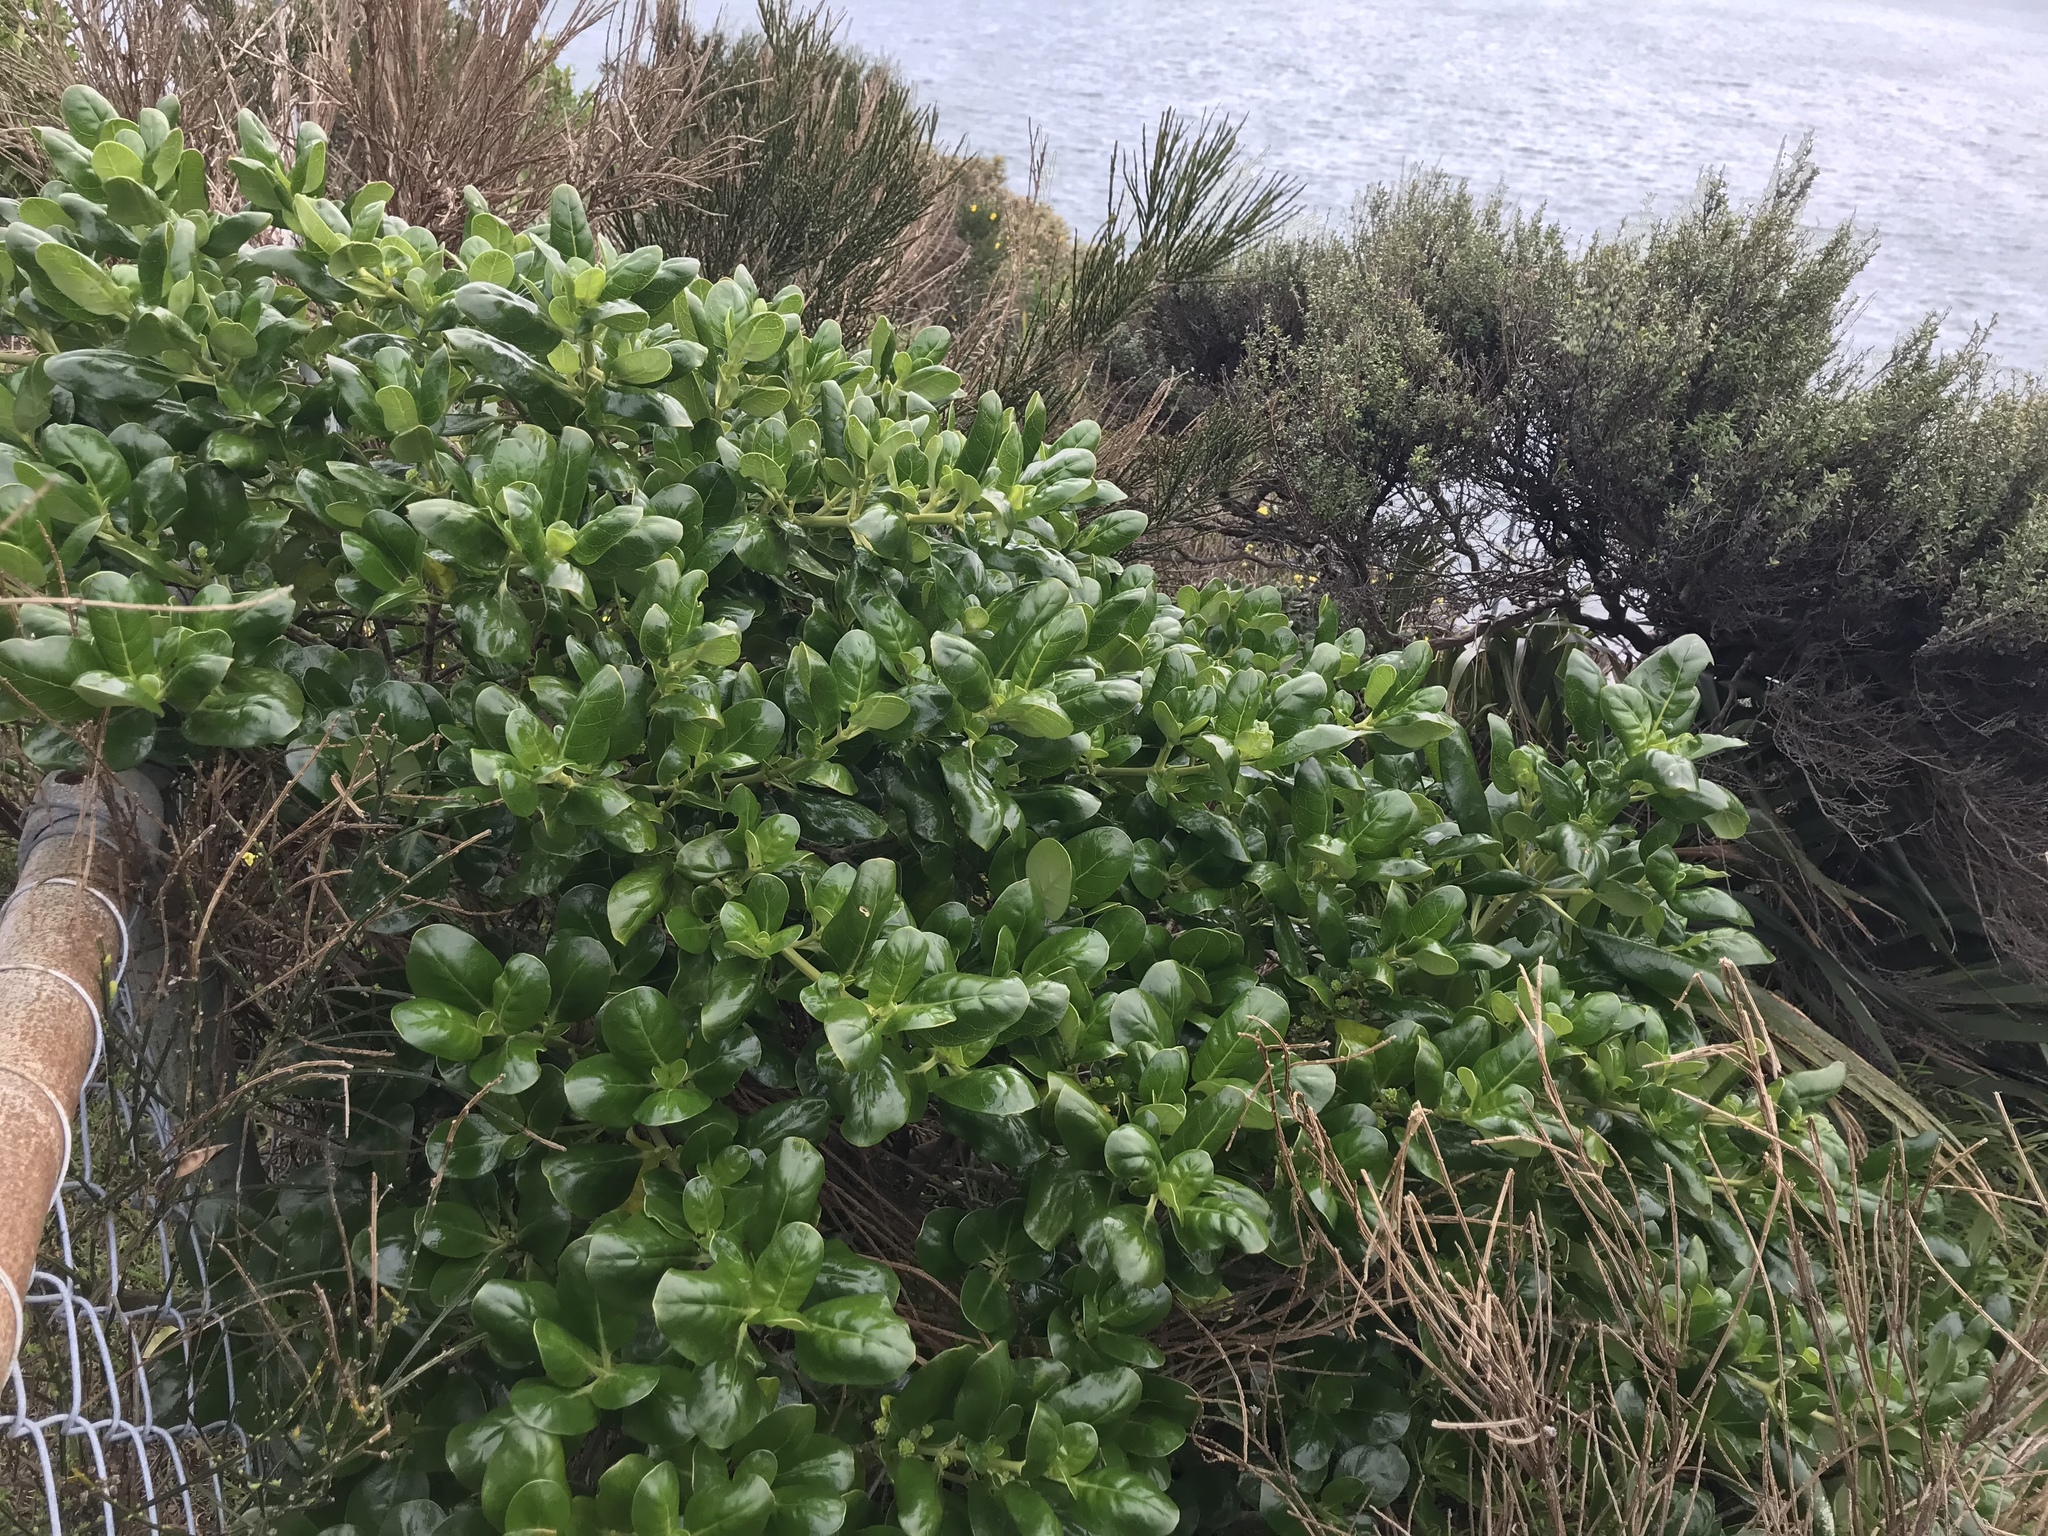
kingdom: Plantae
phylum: Tracheophyta
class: Magnoliopsida
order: Gentianales
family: Rubiaceae
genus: Coprosma
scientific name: Coprosma repens
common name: Tree bedstraw
